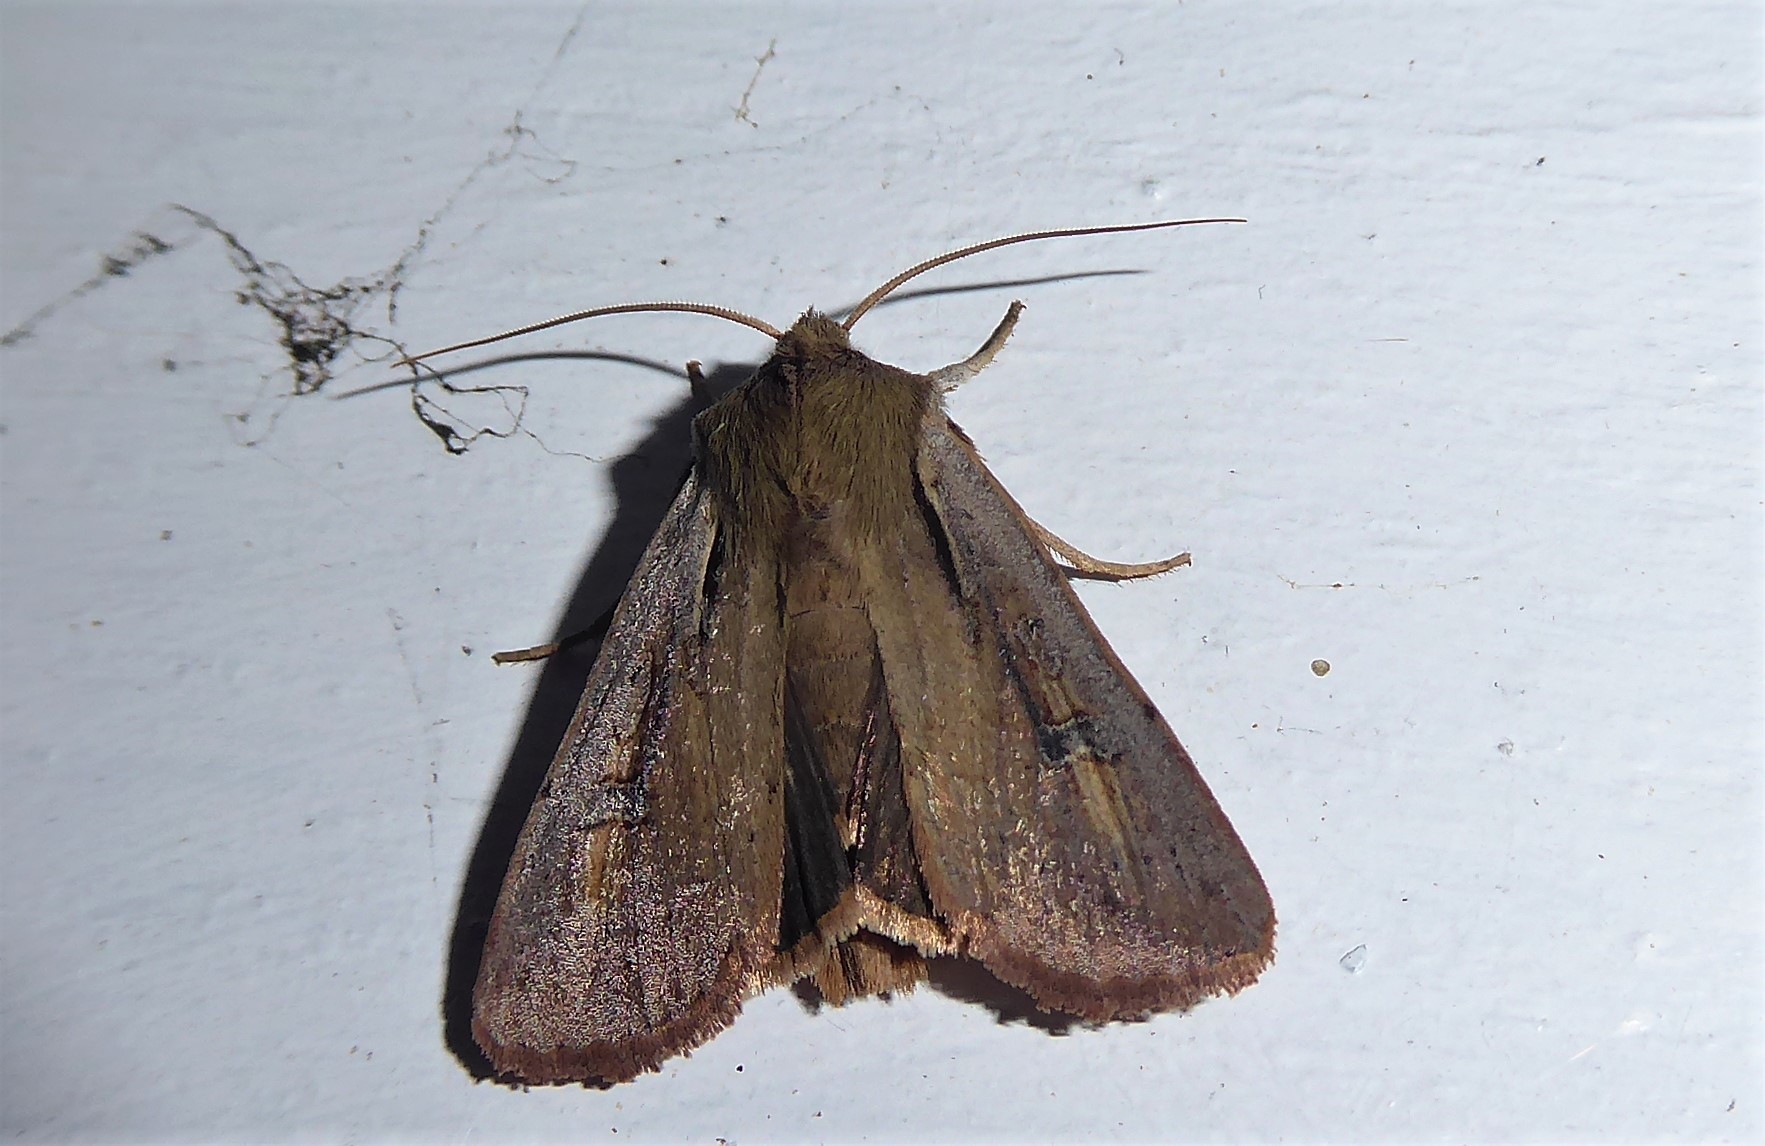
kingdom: Animalia
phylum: Arthropoda
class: Insecta
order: Lepidoptera
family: Noctuidae
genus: Ichneutica
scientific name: Ichneutica atristriga
